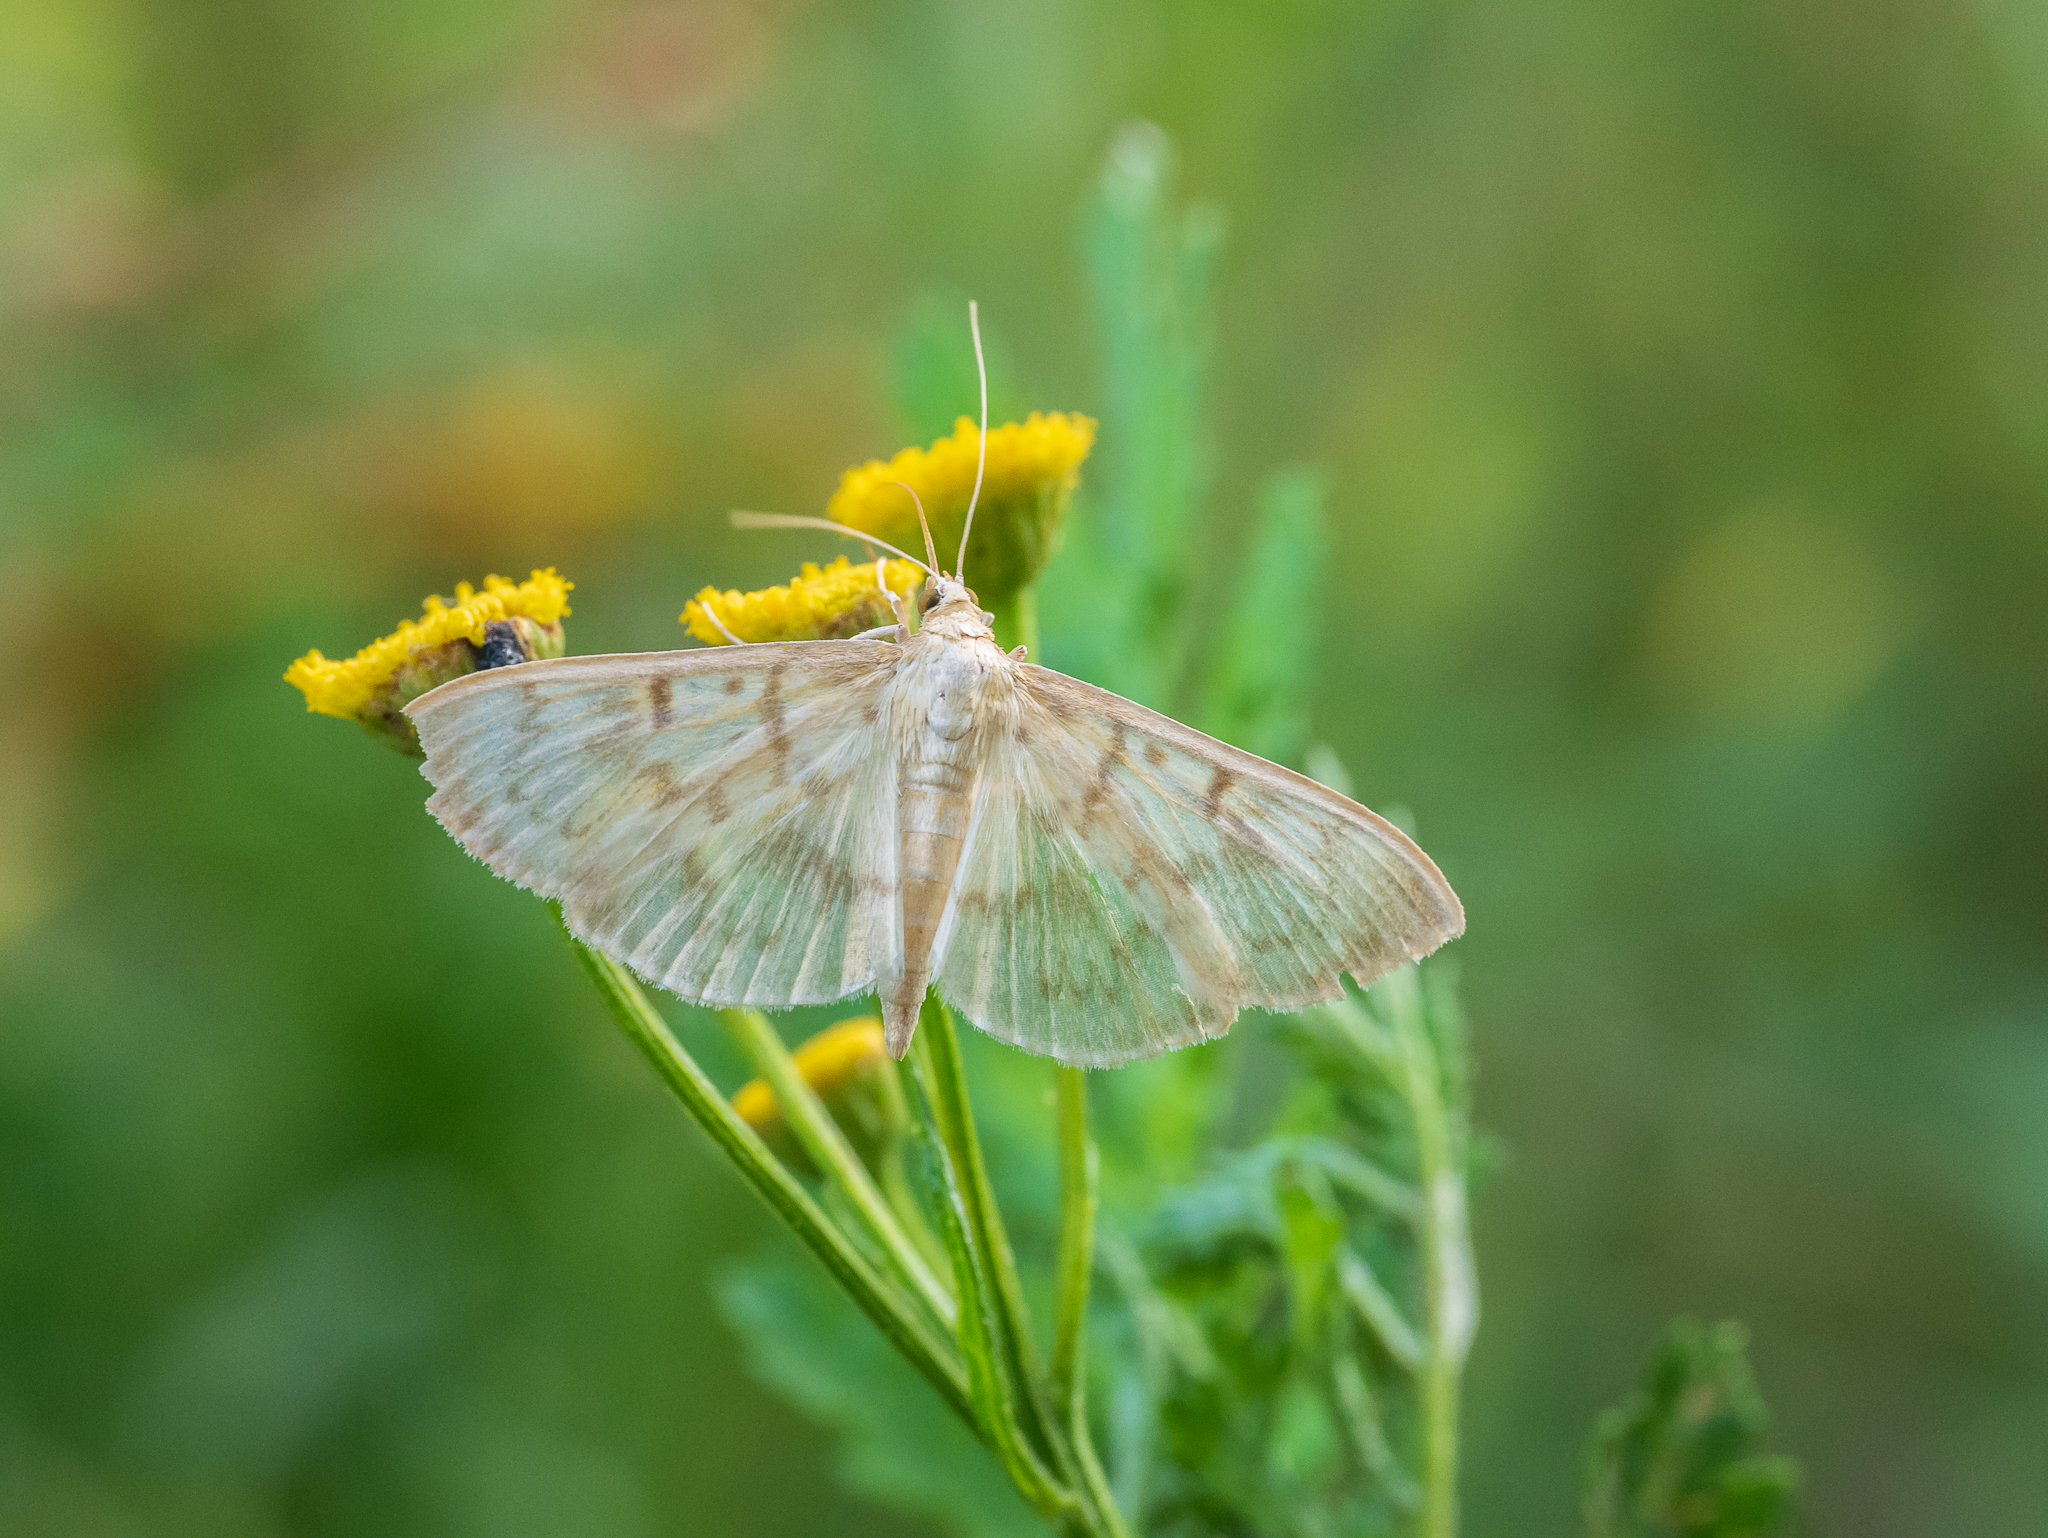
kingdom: Animalia
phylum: Arthropoda
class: Insecta
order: Lepidoptera
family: Crambidae
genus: Patania
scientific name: Patania ruralis
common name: Mother of pearl
